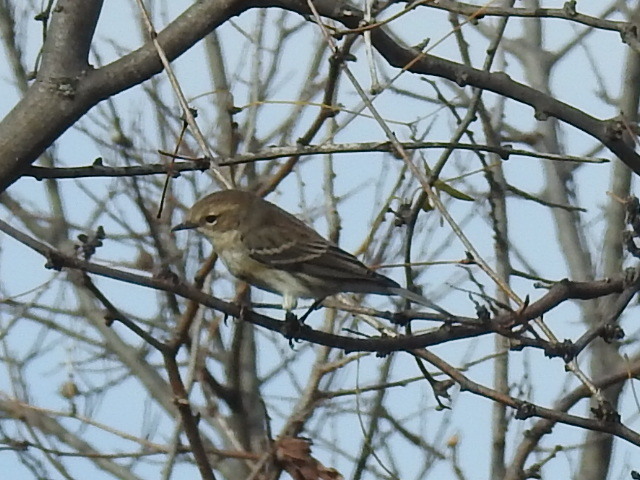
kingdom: Animalia
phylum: Chordata
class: Aves
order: Passeriformes
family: Parulidae
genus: Setophaga
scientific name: Setophaga coronata
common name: Myrtle warbler
